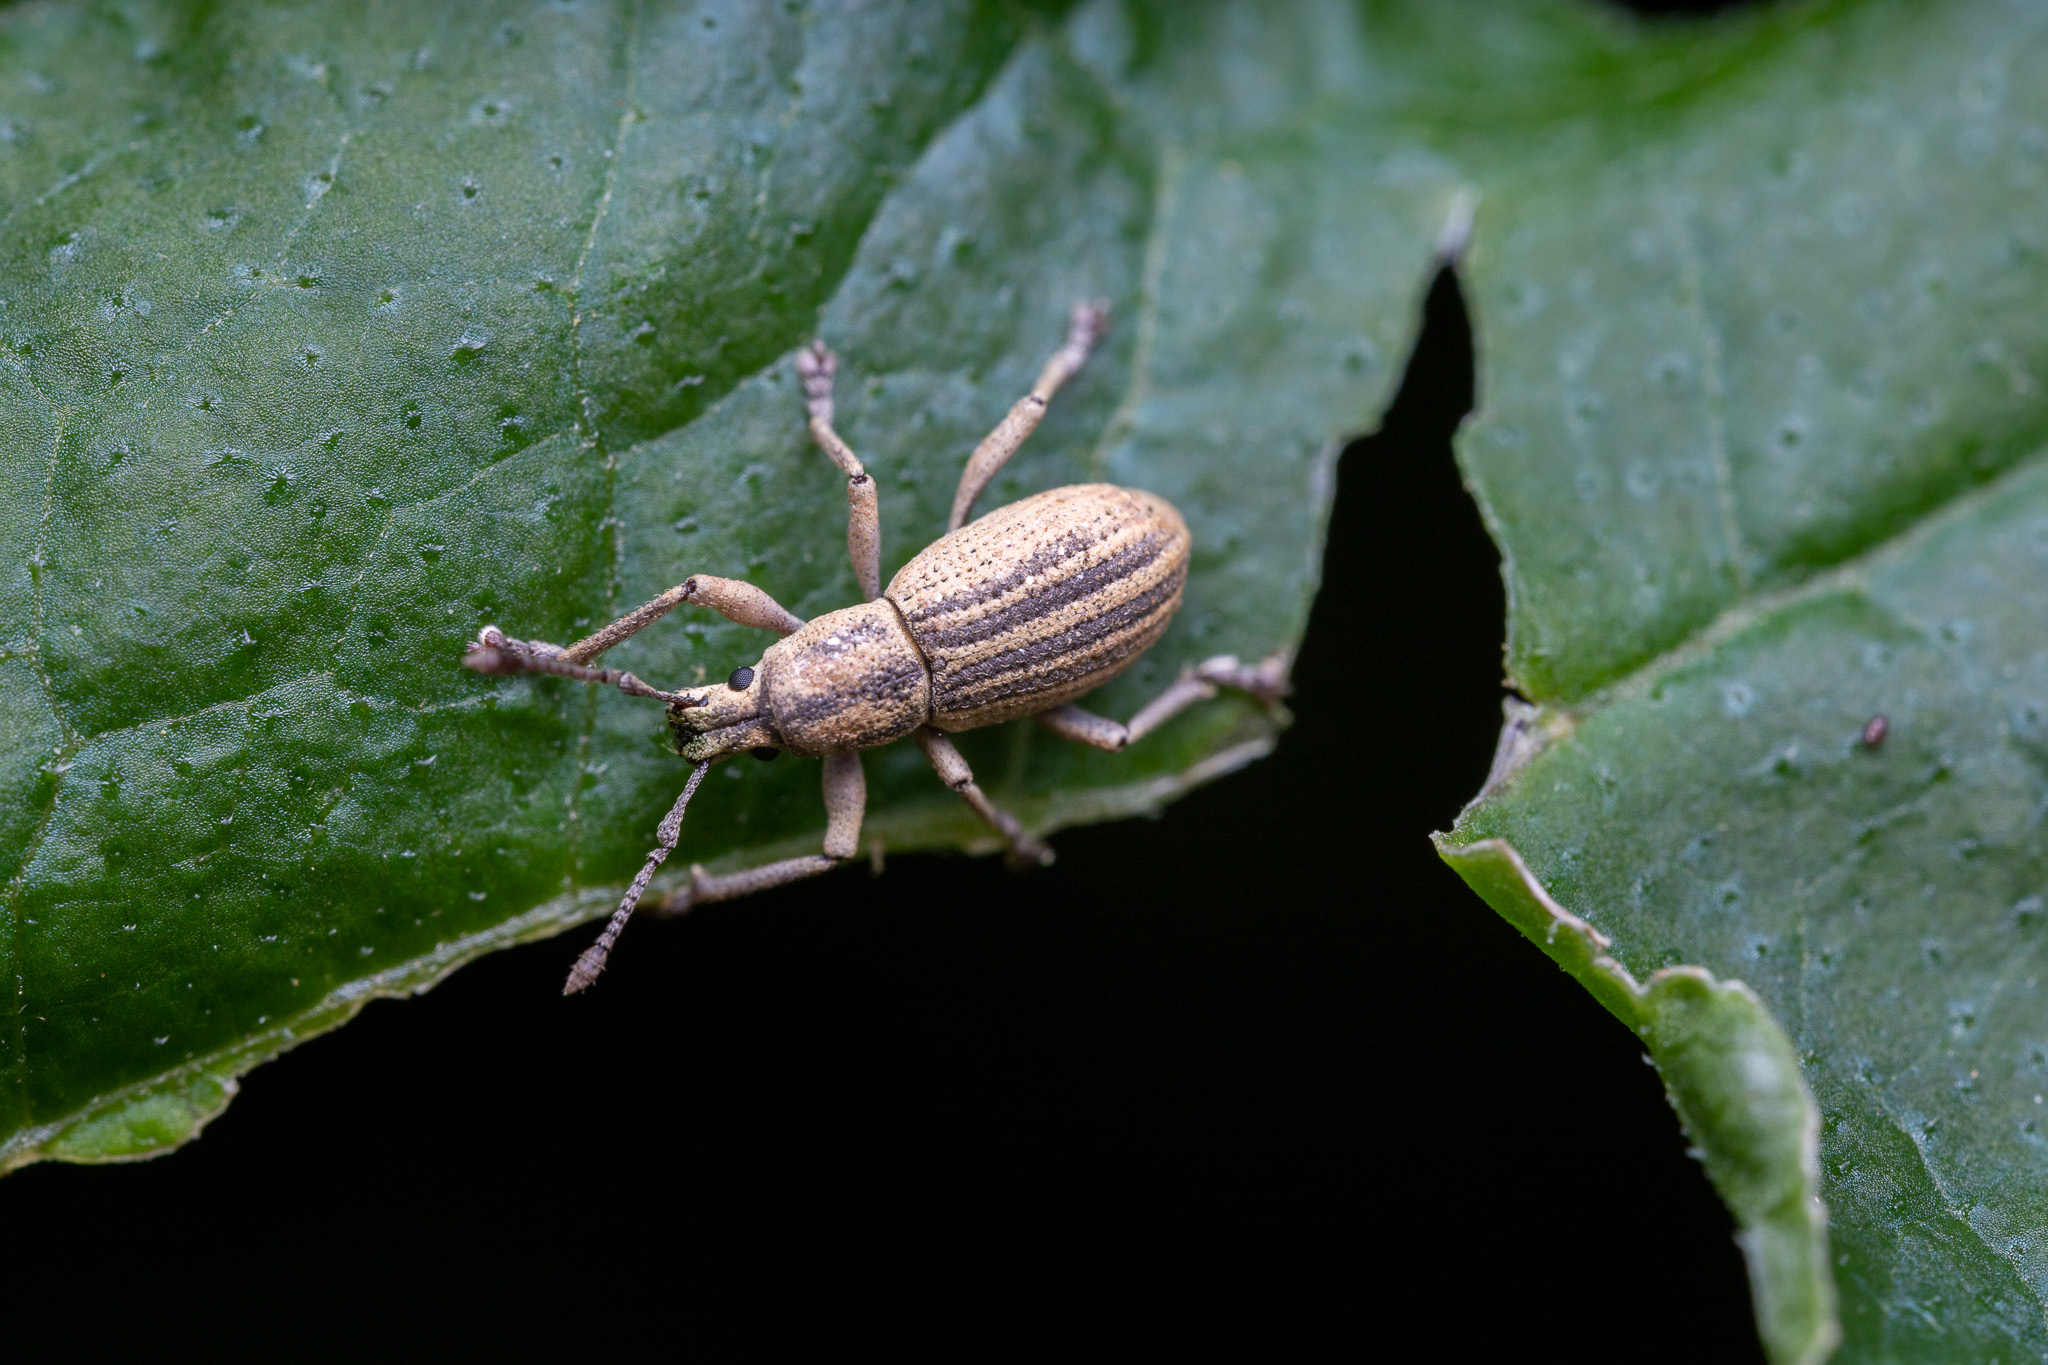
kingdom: Animalia
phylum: Arthropoda
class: Insecta
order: Coleoptera
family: Curculionidae
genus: Aphrastus
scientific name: Aphrastus taeniatus
